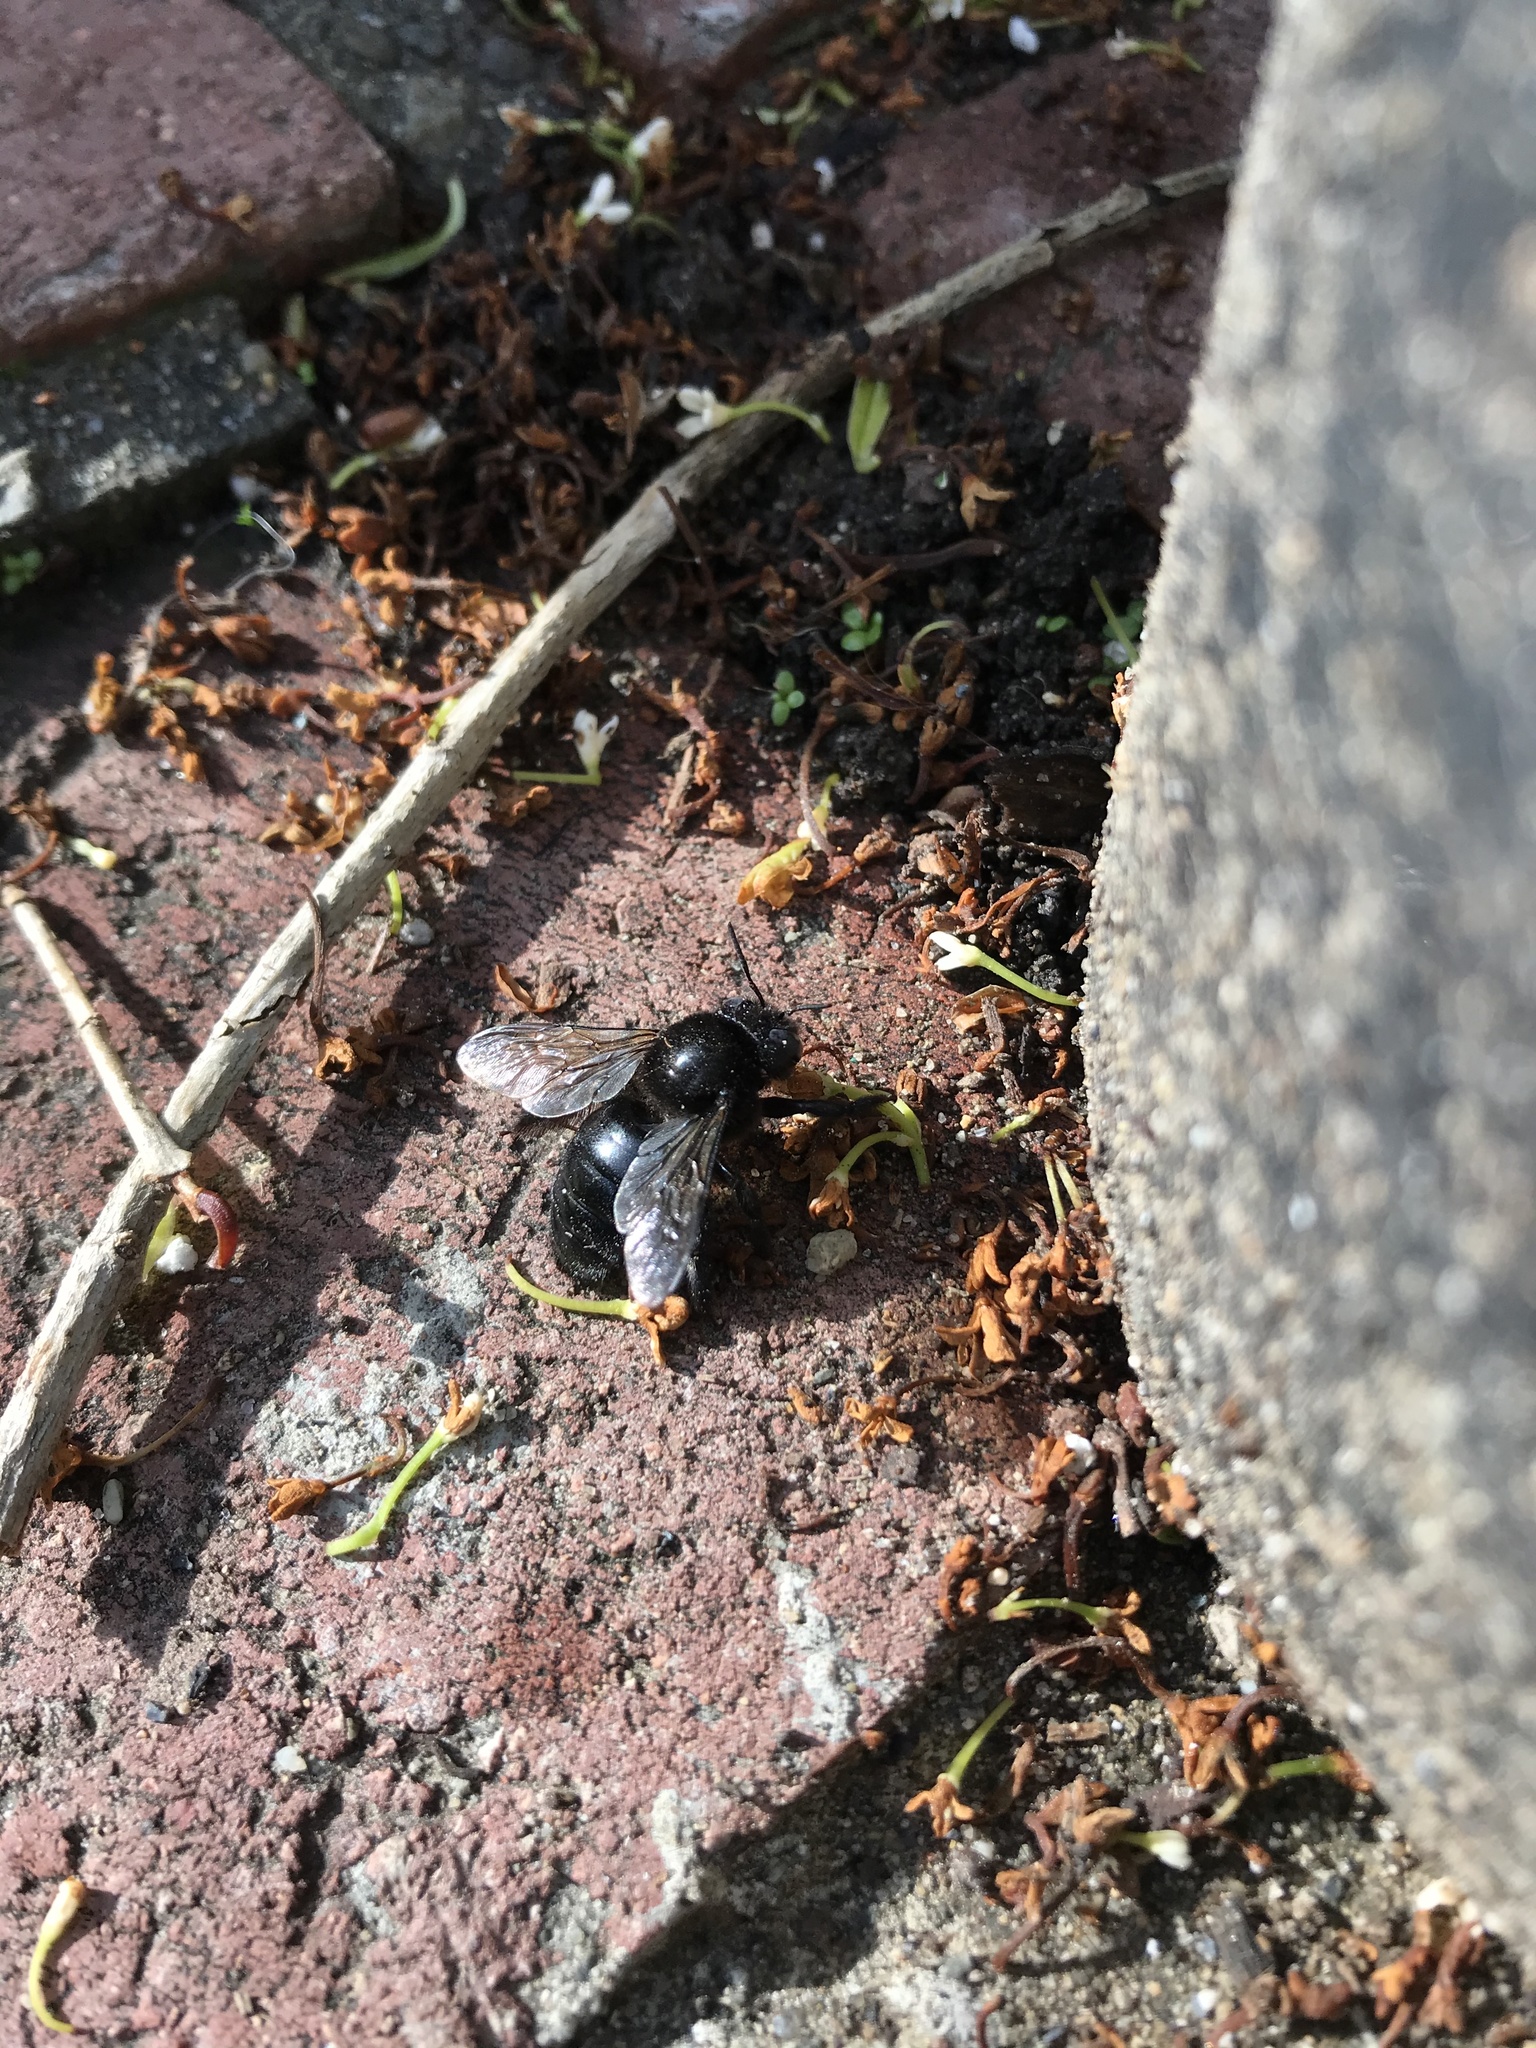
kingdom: Animalia
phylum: Arthropoda
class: Insecta
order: Hymenoptera
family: Apidae
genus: Xylocopa
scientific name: Xylocopa tabaniformis
